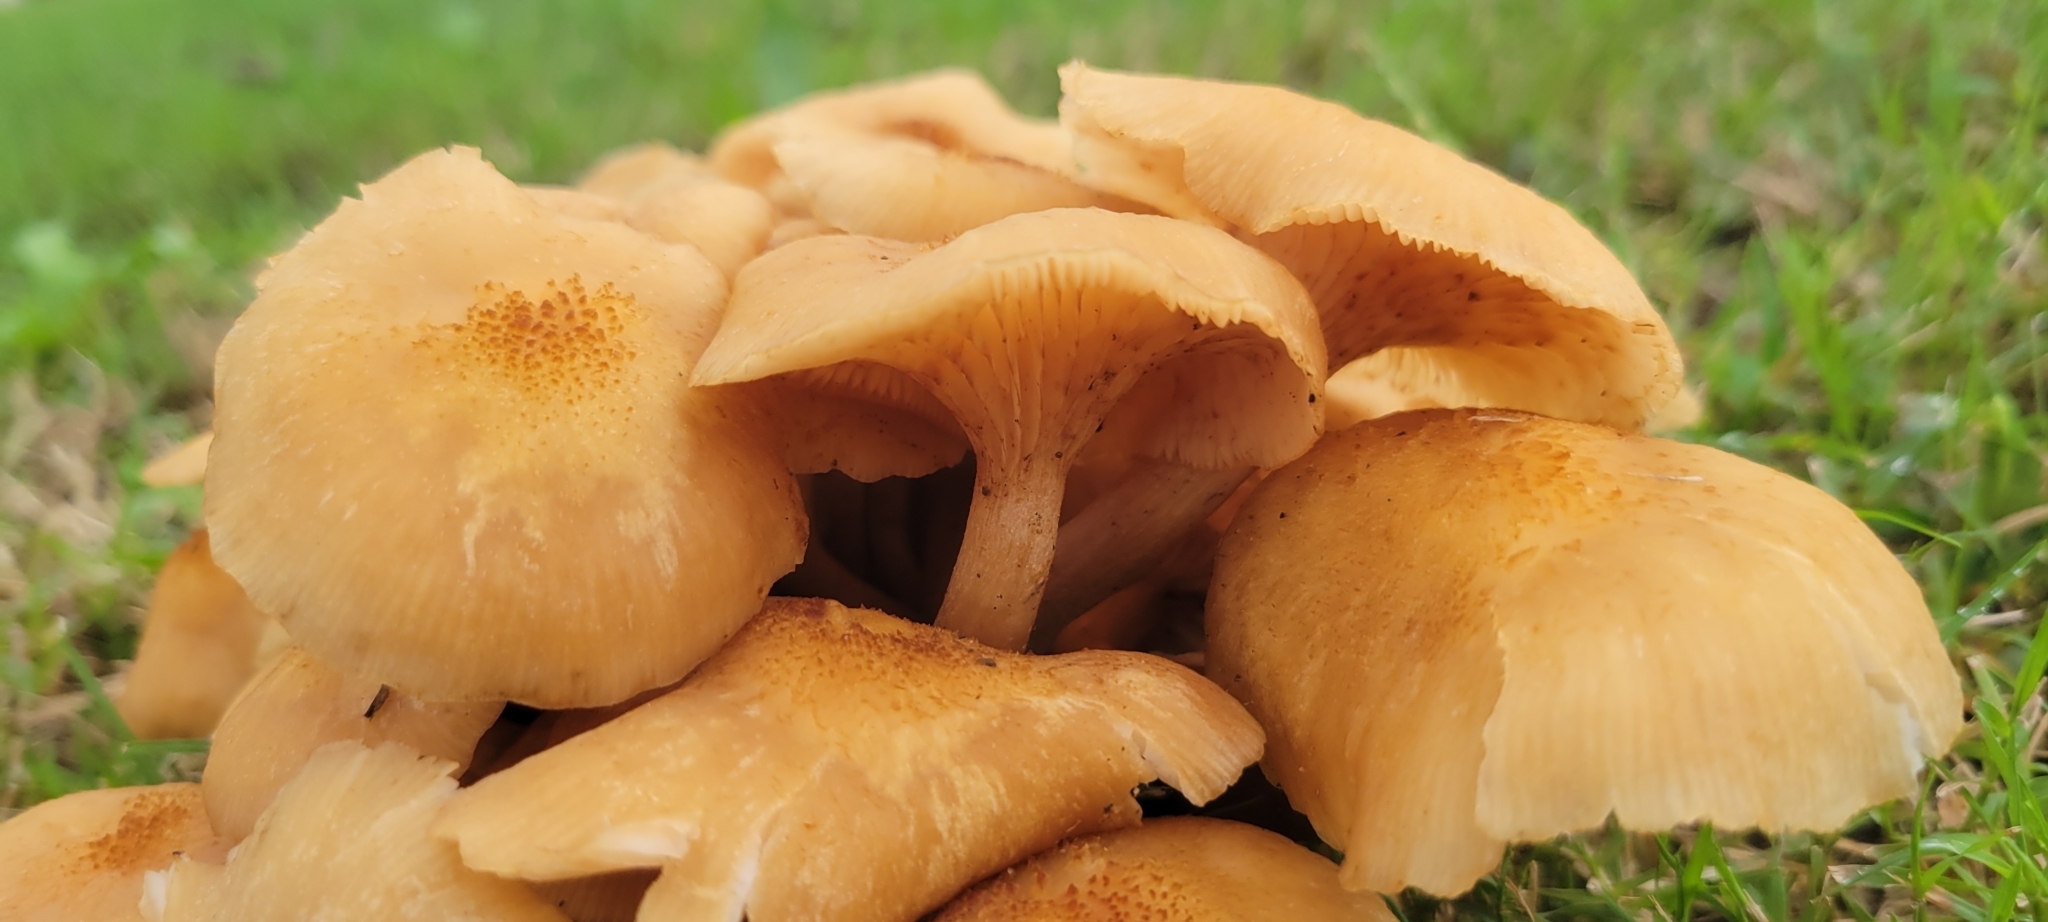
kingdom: Fungi
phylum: Basidiomycota
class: Agaricomycetes
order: Agaricales
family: Physalacriaceae
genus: Desarmillaria
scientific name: Desarmillaria caespitosa
